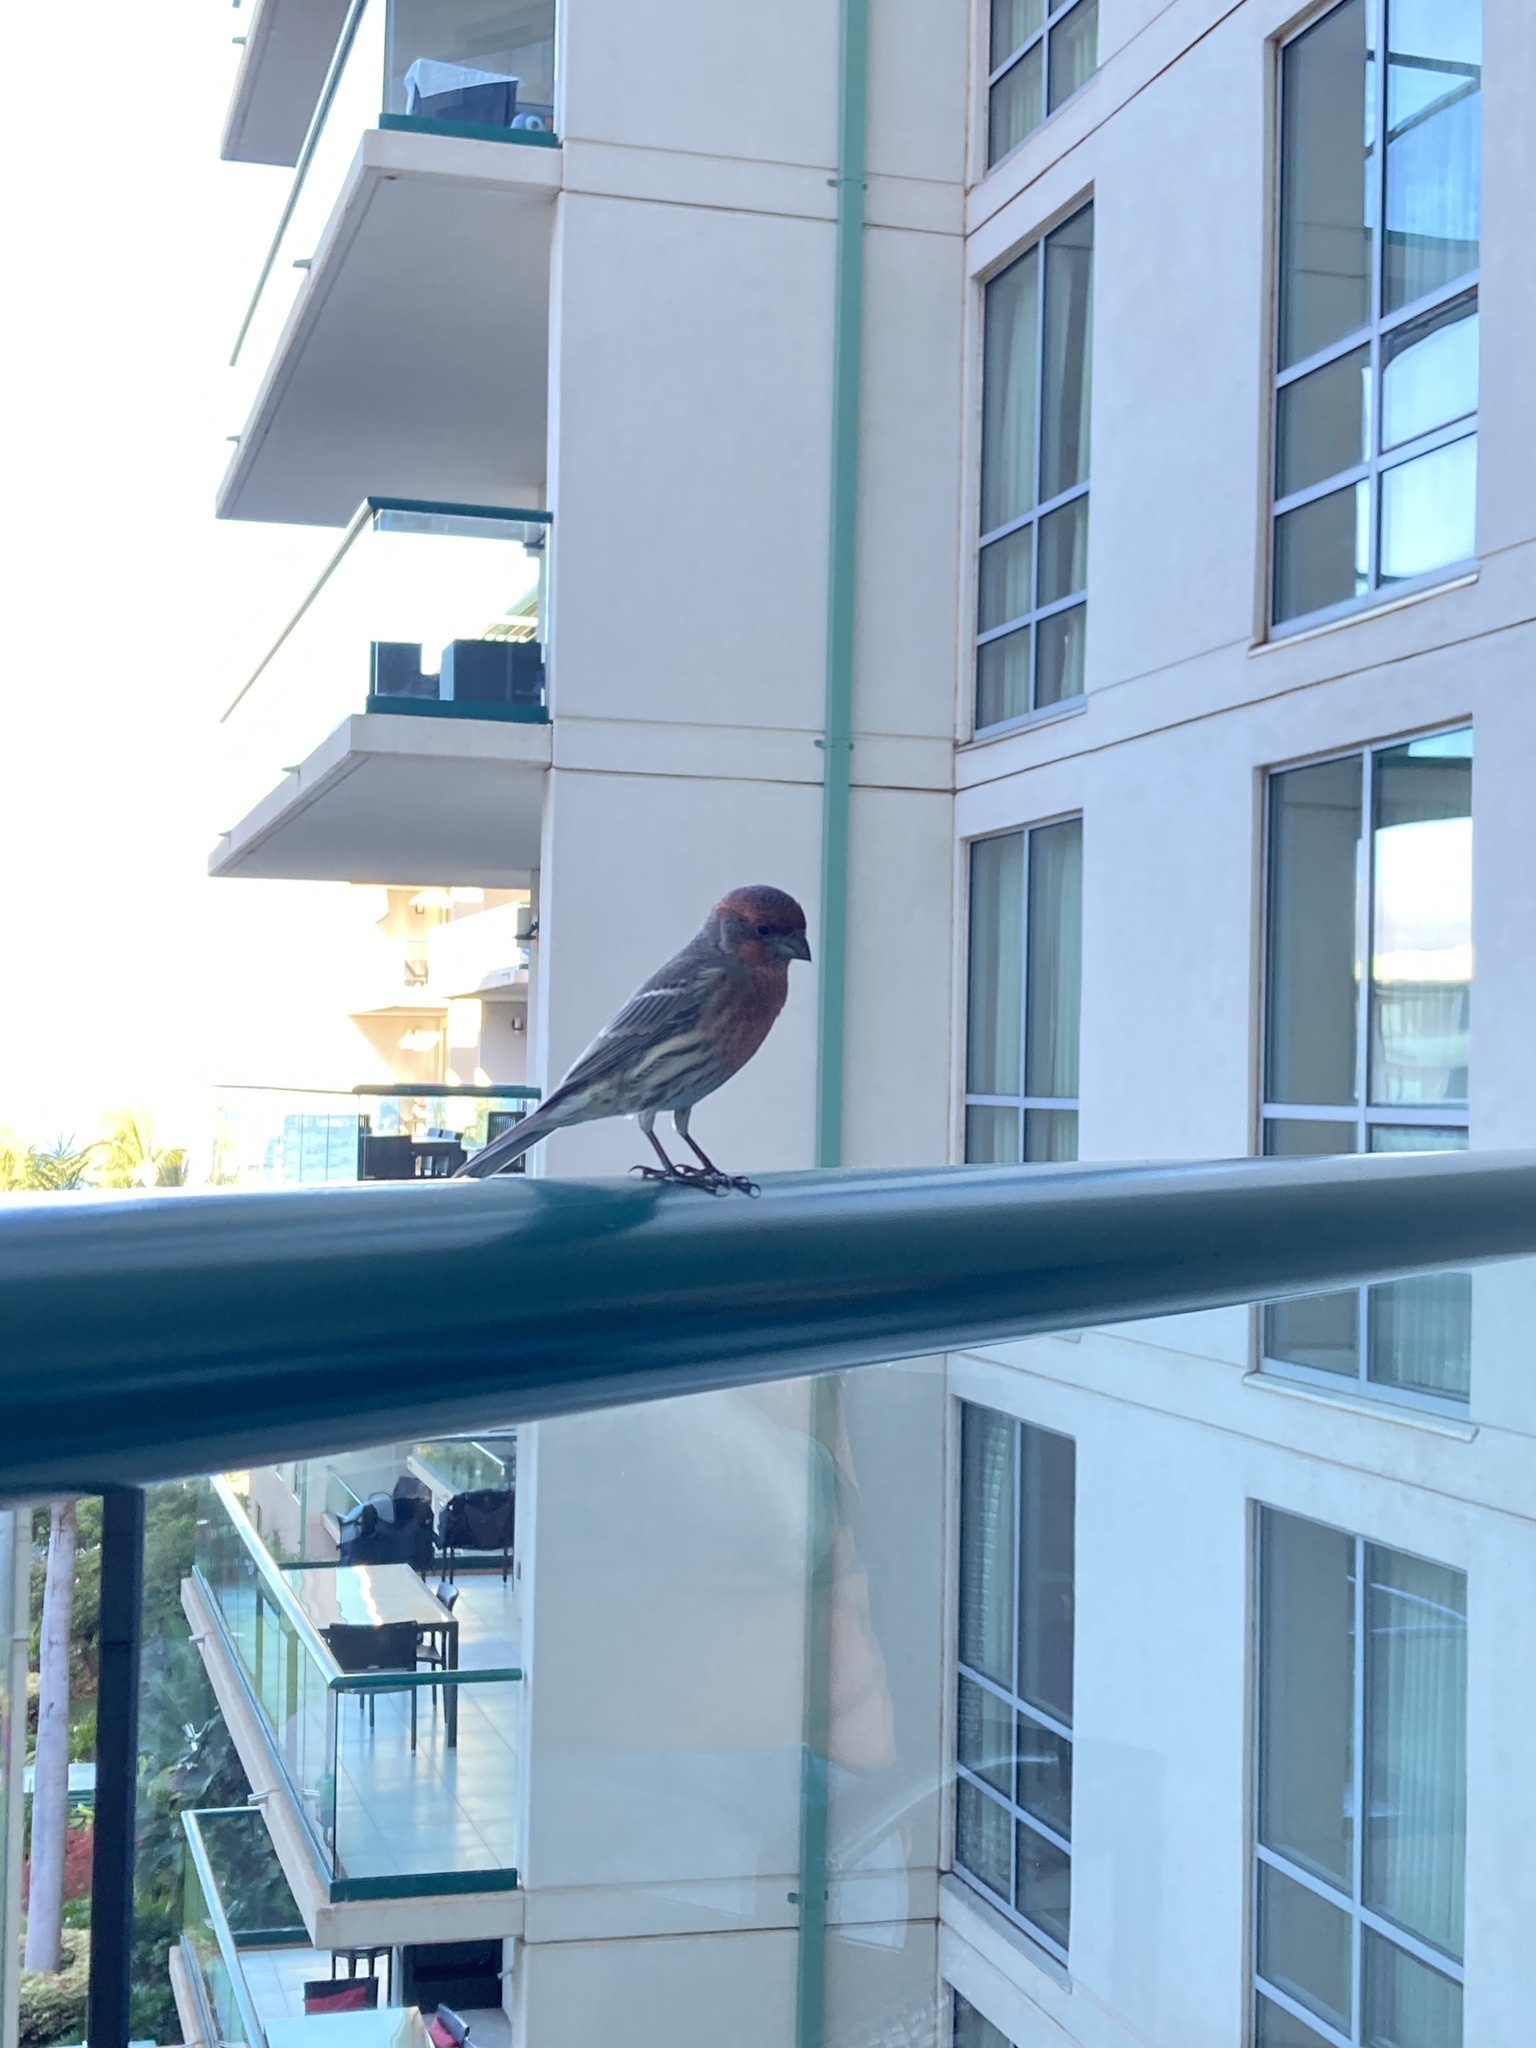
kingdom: Animalia
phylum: Chordata
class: Aves
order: Passeriformes
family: Fringillidae
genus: Haemorhous
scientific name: Haemorhous mexicanus
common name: House finch
